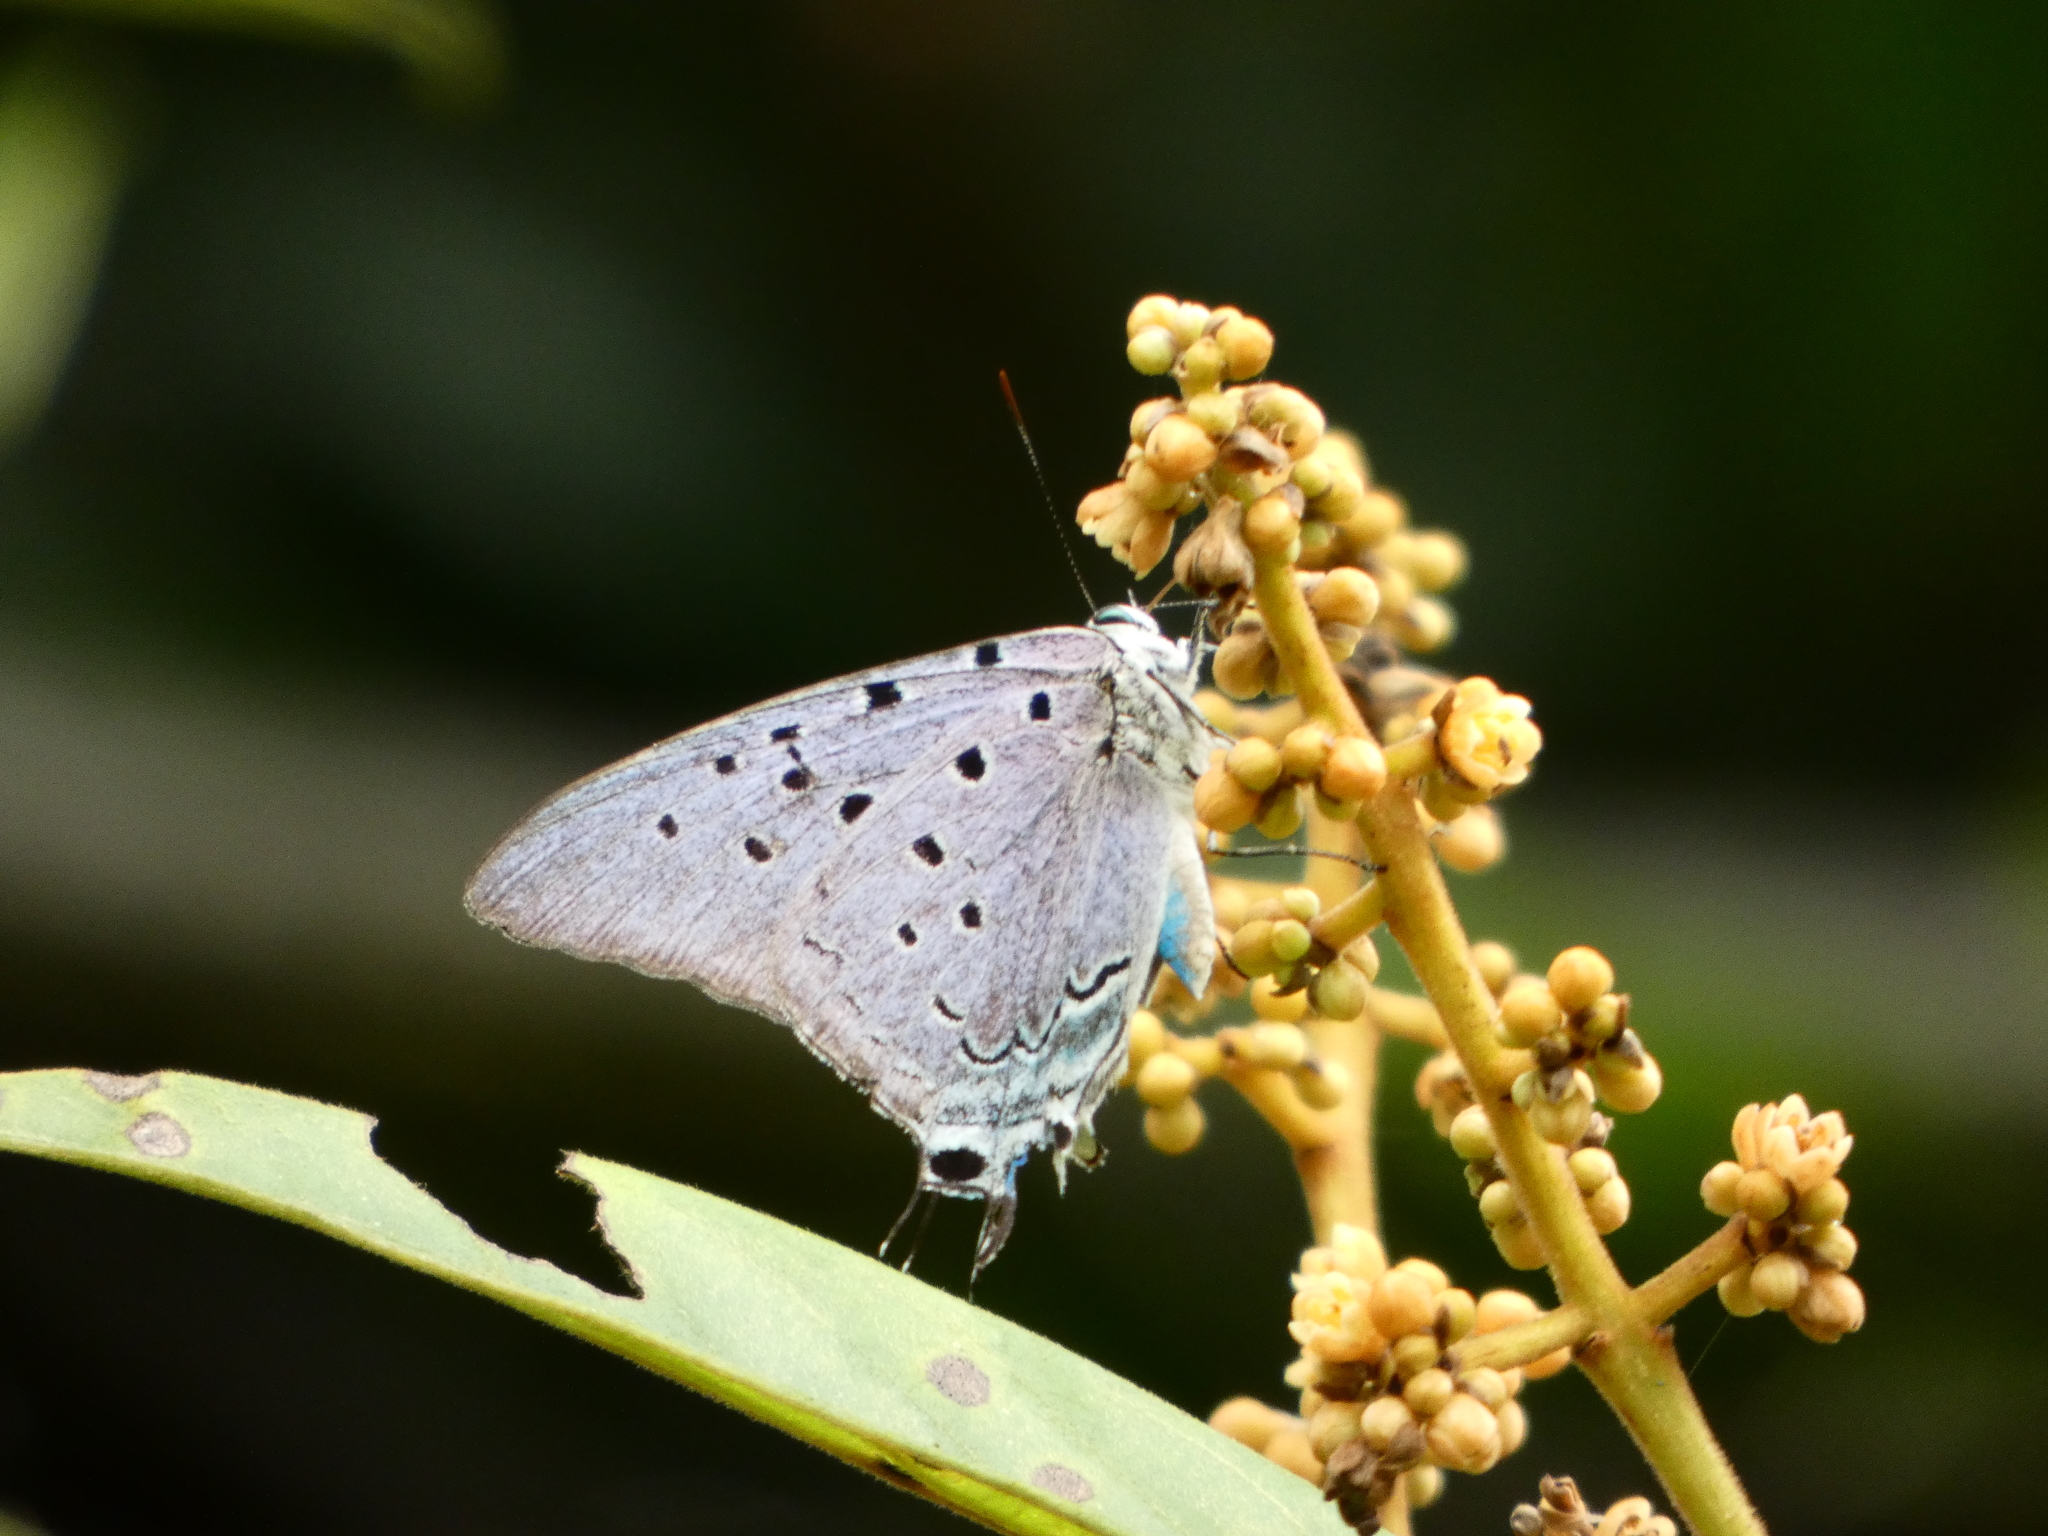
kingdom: Animalia
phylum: Arthropoda
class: Insecta
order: Lepidoptera
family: Lycaenidae
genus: Pseudolycaena
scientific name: Pseudolycaena marsyas
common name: Marsyas hairstreak
